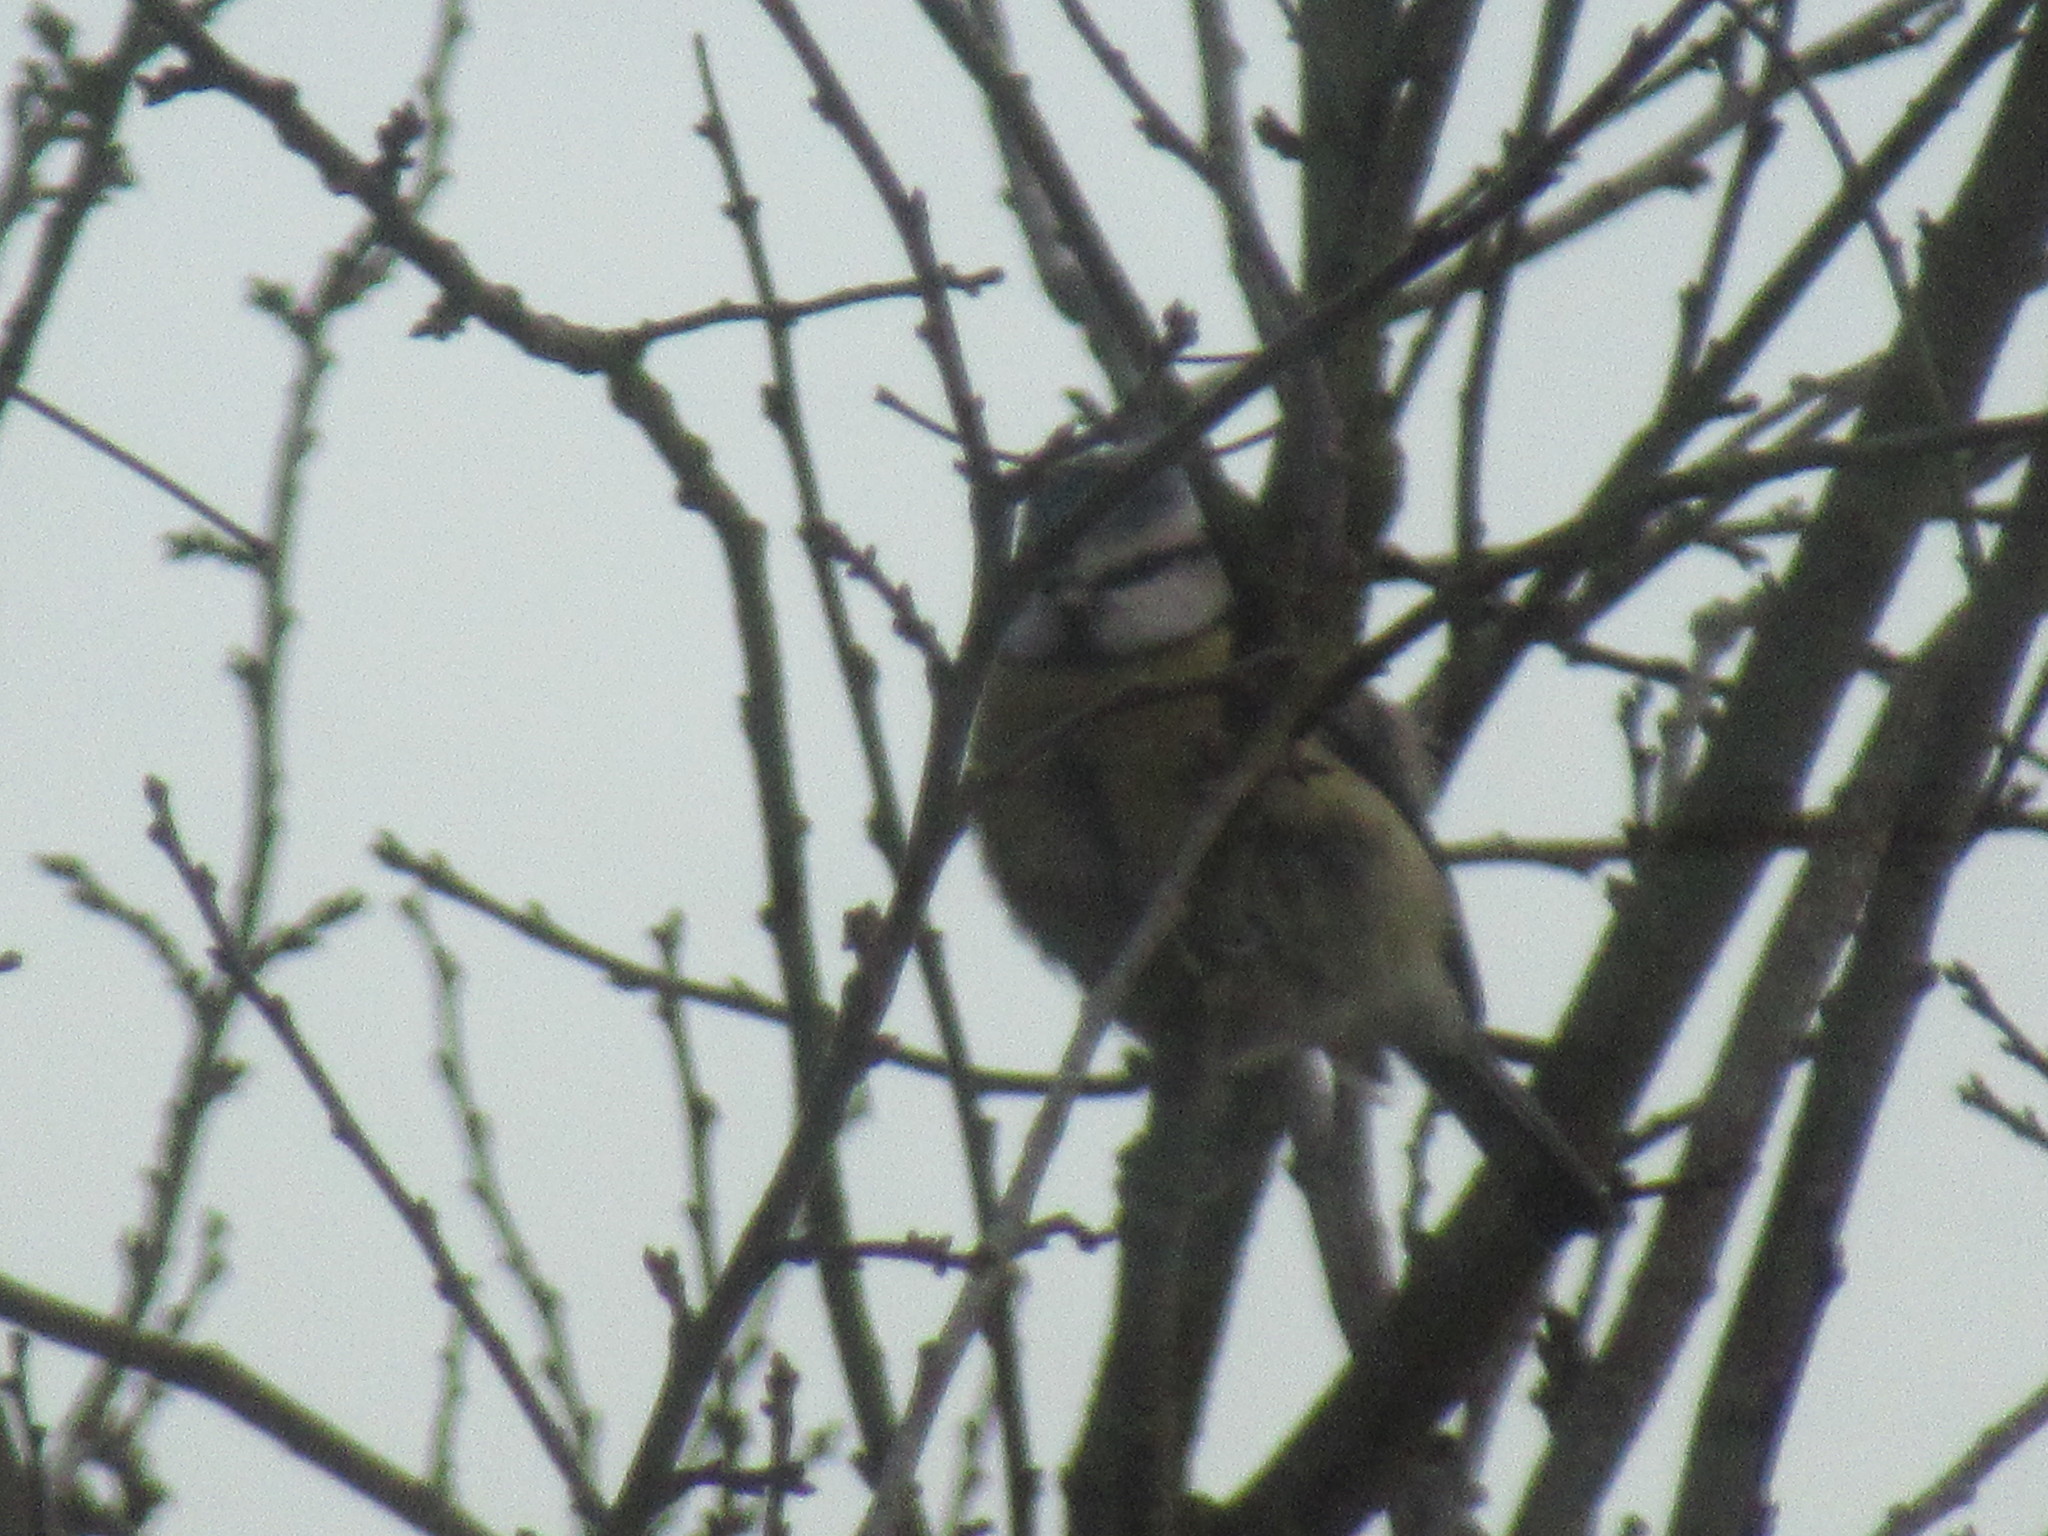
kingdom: Animalia
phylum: Chordata
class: Aves
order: Passeriformes
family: Paridae
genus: Cyanistes
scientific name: Cyanistes caeruleus
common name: Eurasian blue tit
